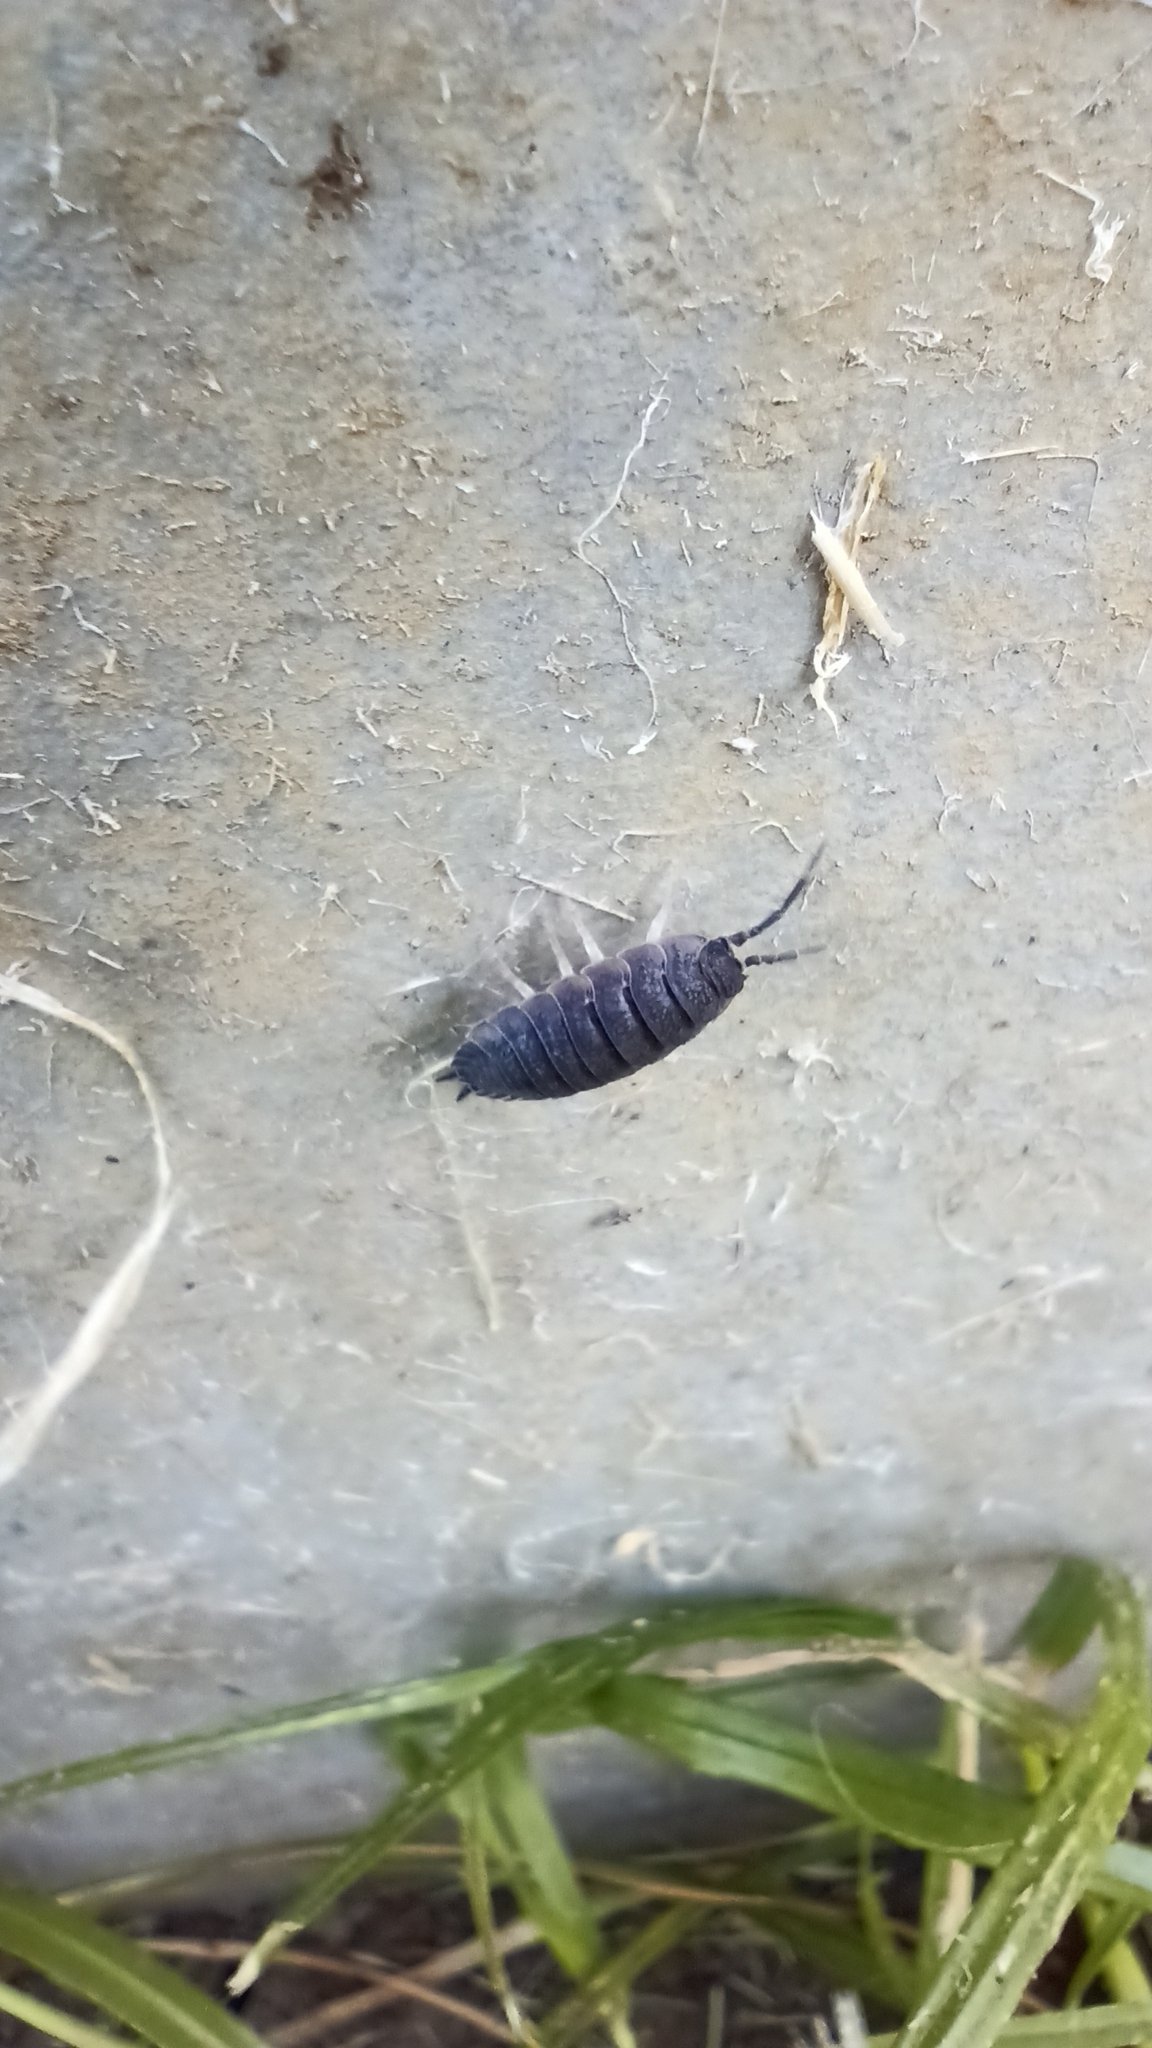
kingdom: Animalia
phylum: Arthropoda
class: Malacostraca
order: Isopoda
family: Porcellionidae
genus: Porcellio
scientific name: Porcellio scaber
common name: Common rough woodlouse
